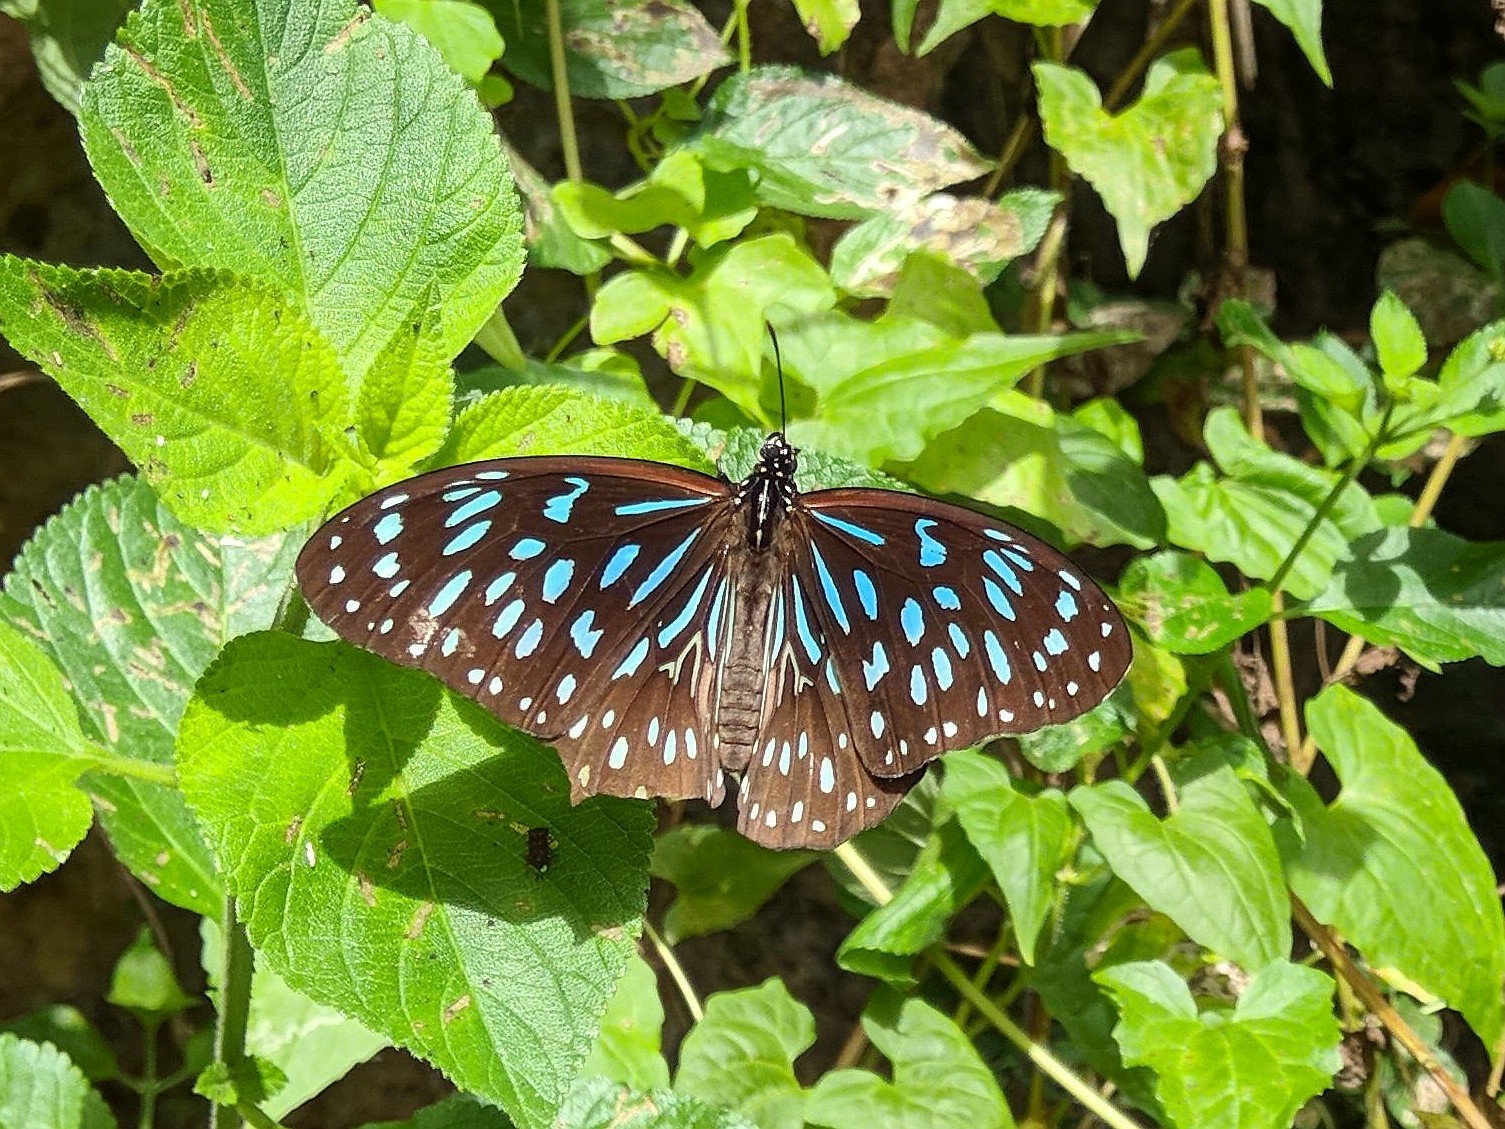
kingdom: Animalia
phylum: Arthropoda
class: Insecta
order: Lepidoptera
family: Nymphalidae
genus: Tirumala
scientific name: Tirumala hamata
